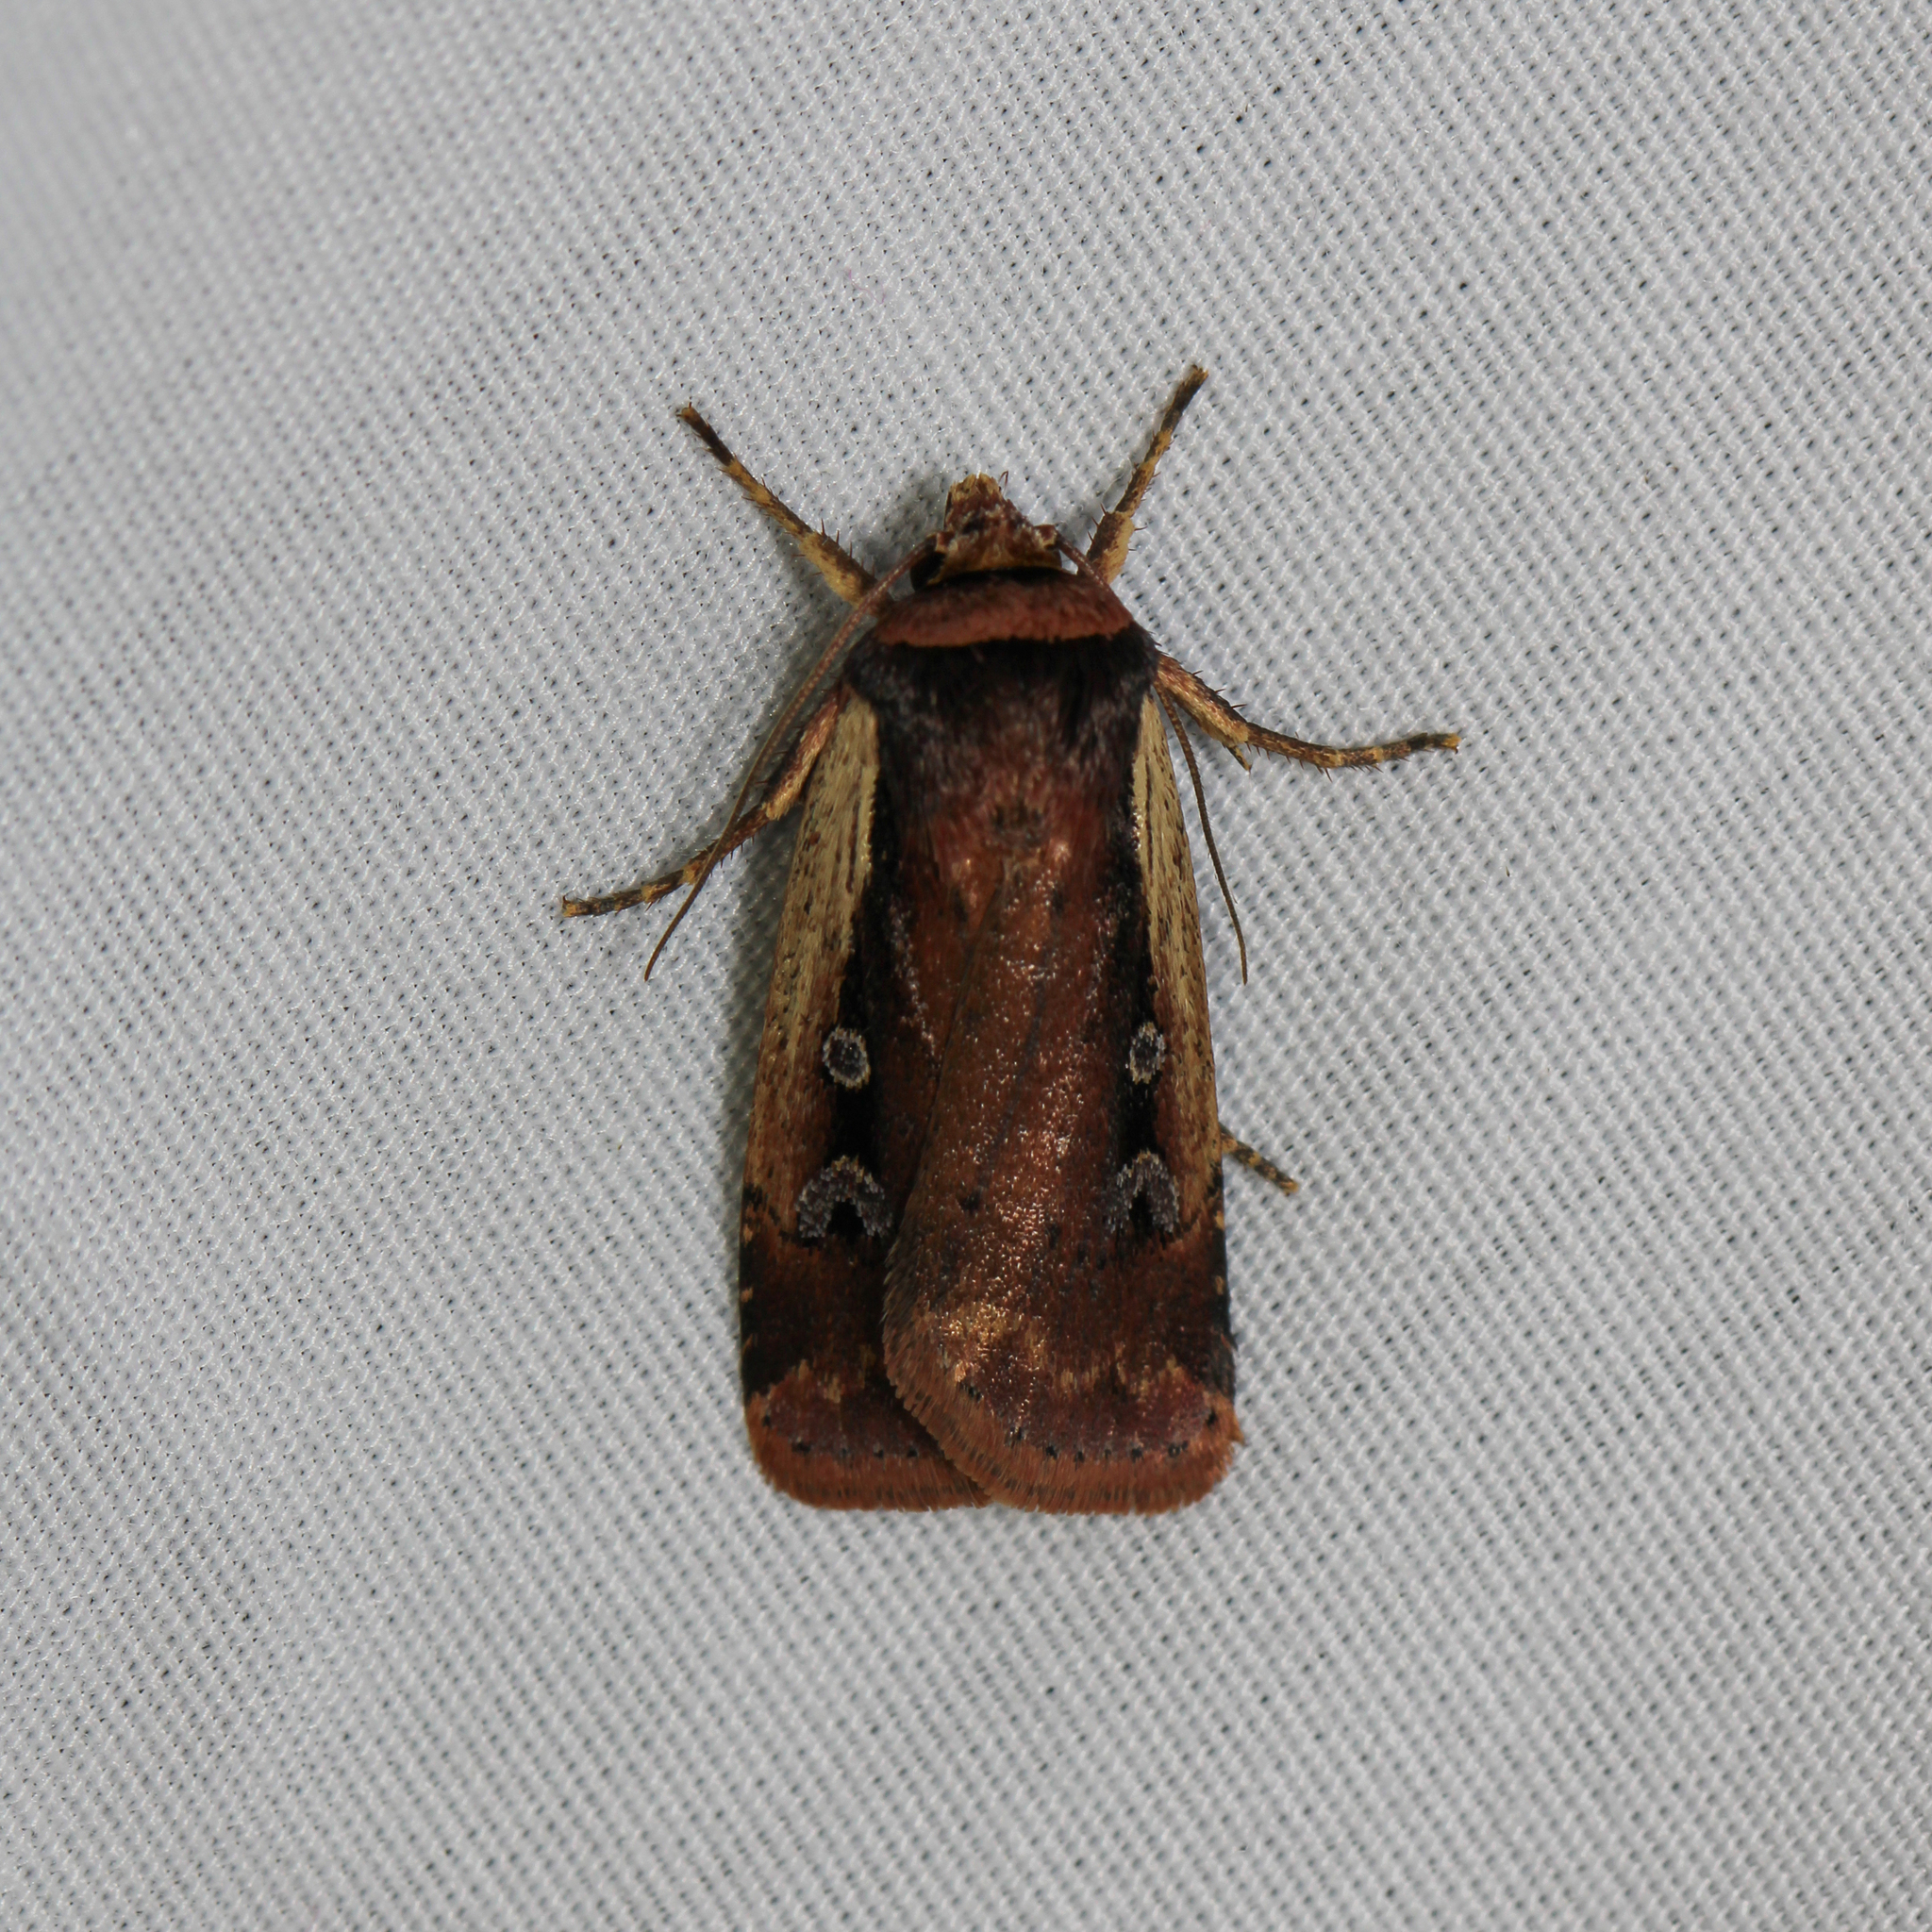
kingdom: Animalia
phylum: Arthropoda
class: Insecta
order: Lepidoptera
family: Noctuidae
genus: Ochropleura
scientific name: Ochropleura implecta
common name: Flame-shouldered dart
